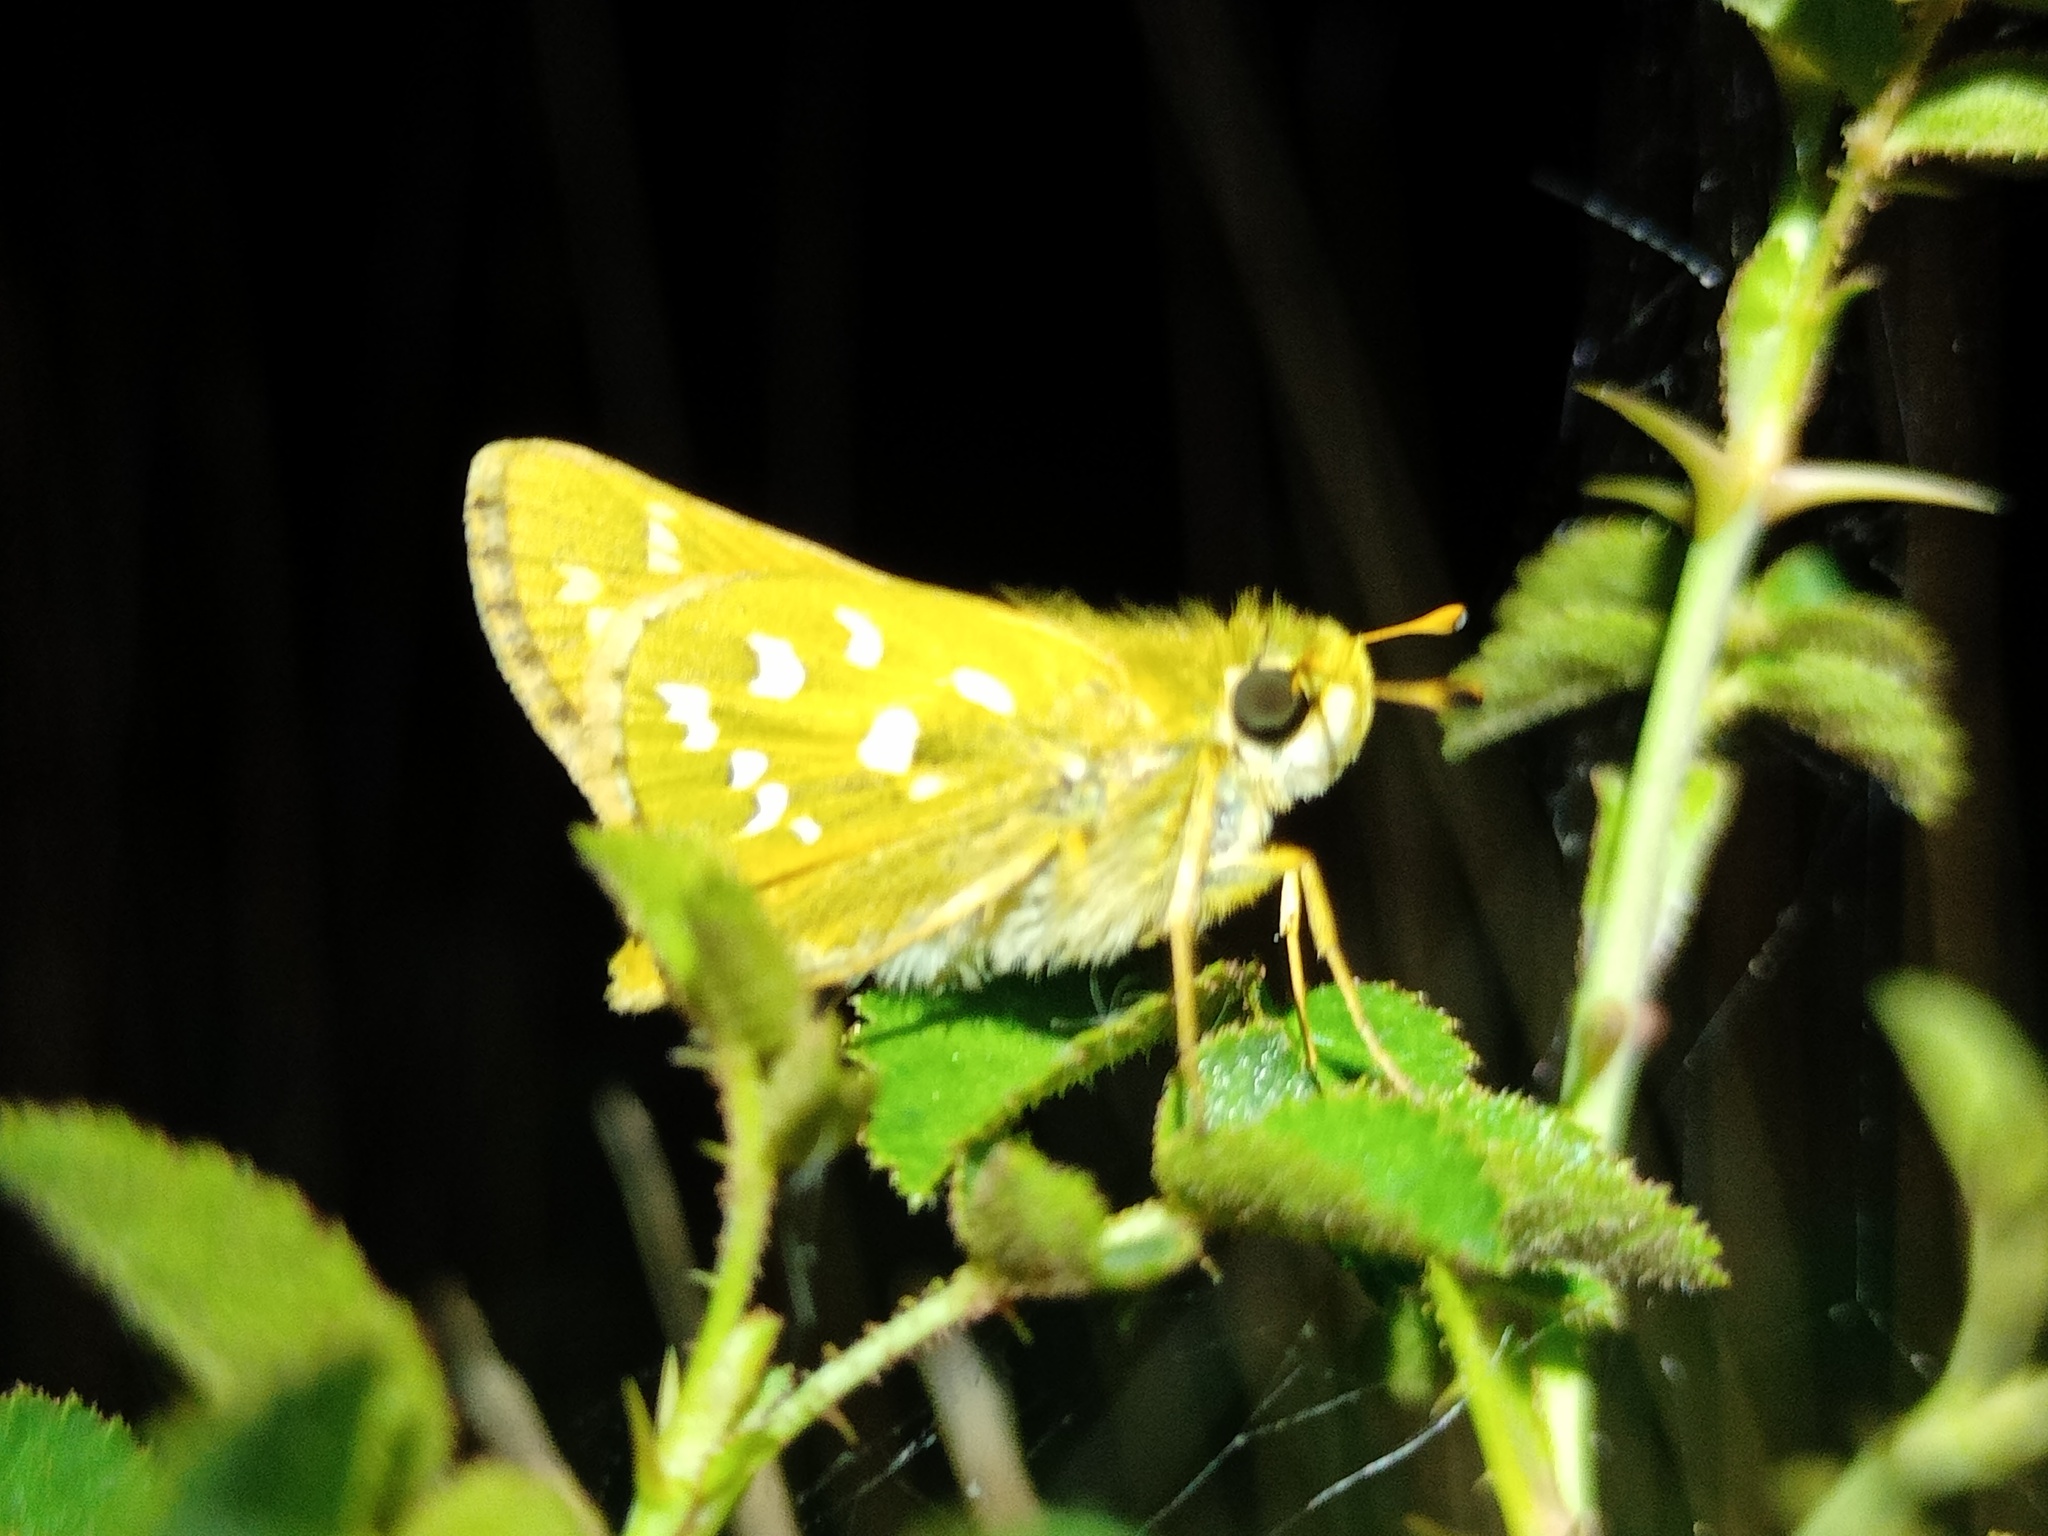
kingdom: Animalia
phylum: Arthropoda
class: Insecta
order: Lepidoptera
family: Hesperiidae
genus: Hesperia
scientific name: Hesperia comma
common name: Common branded skipper
